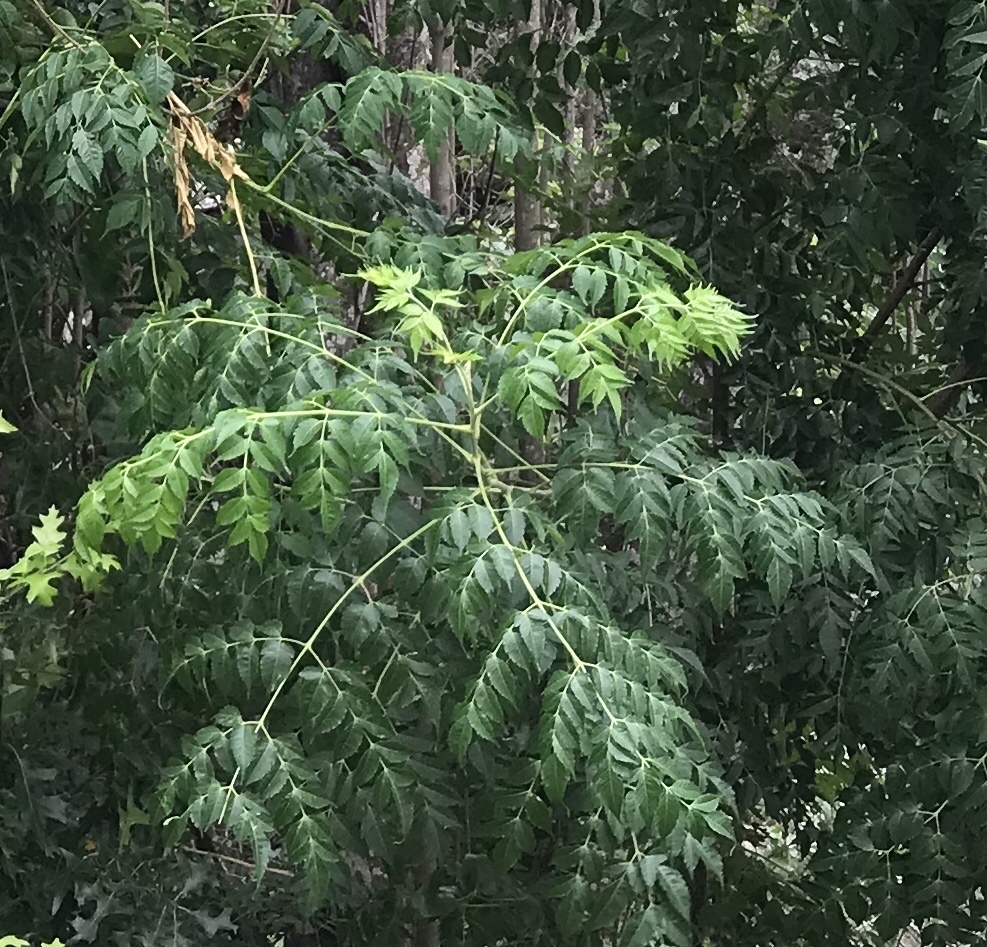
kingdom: Plantae
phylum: Tracheophyta
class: Magnoliopsida
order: Sapindales
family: Meliaceae
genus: Melia
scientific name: Melia azedarach
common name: Chinaberrytree
